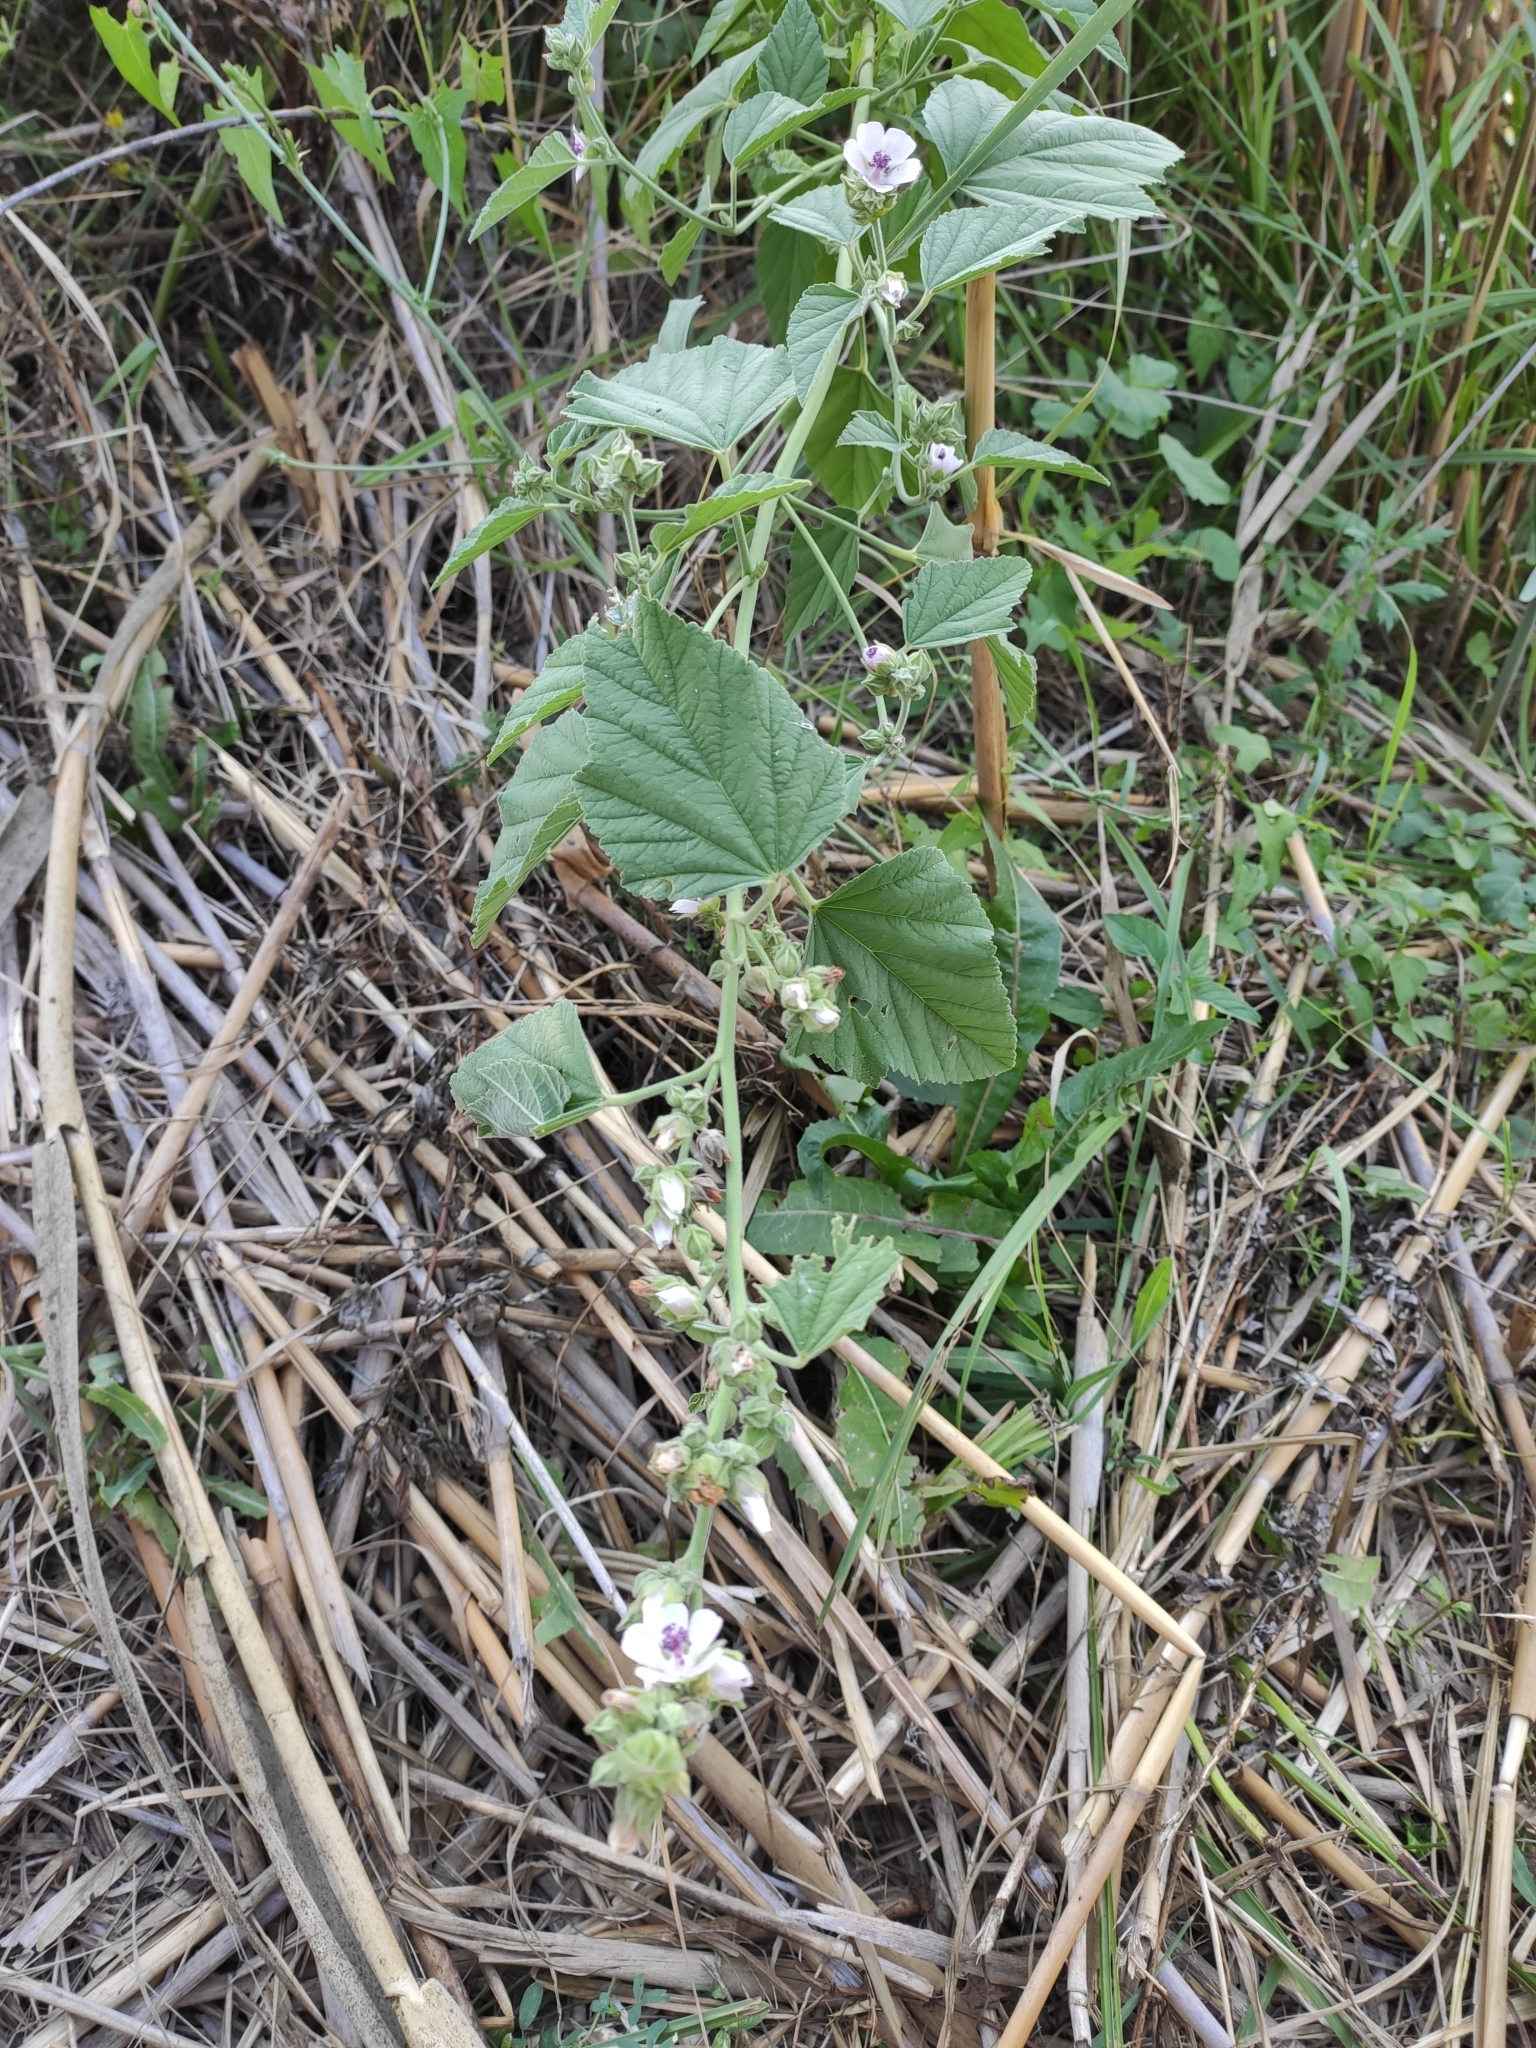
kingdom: Plantae
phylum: Tracheophyta
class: Magnoliopsida
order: Malvales
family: Malvaceae
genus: Althaea
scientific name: Althaea officinalis
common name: Marsh-mallow
